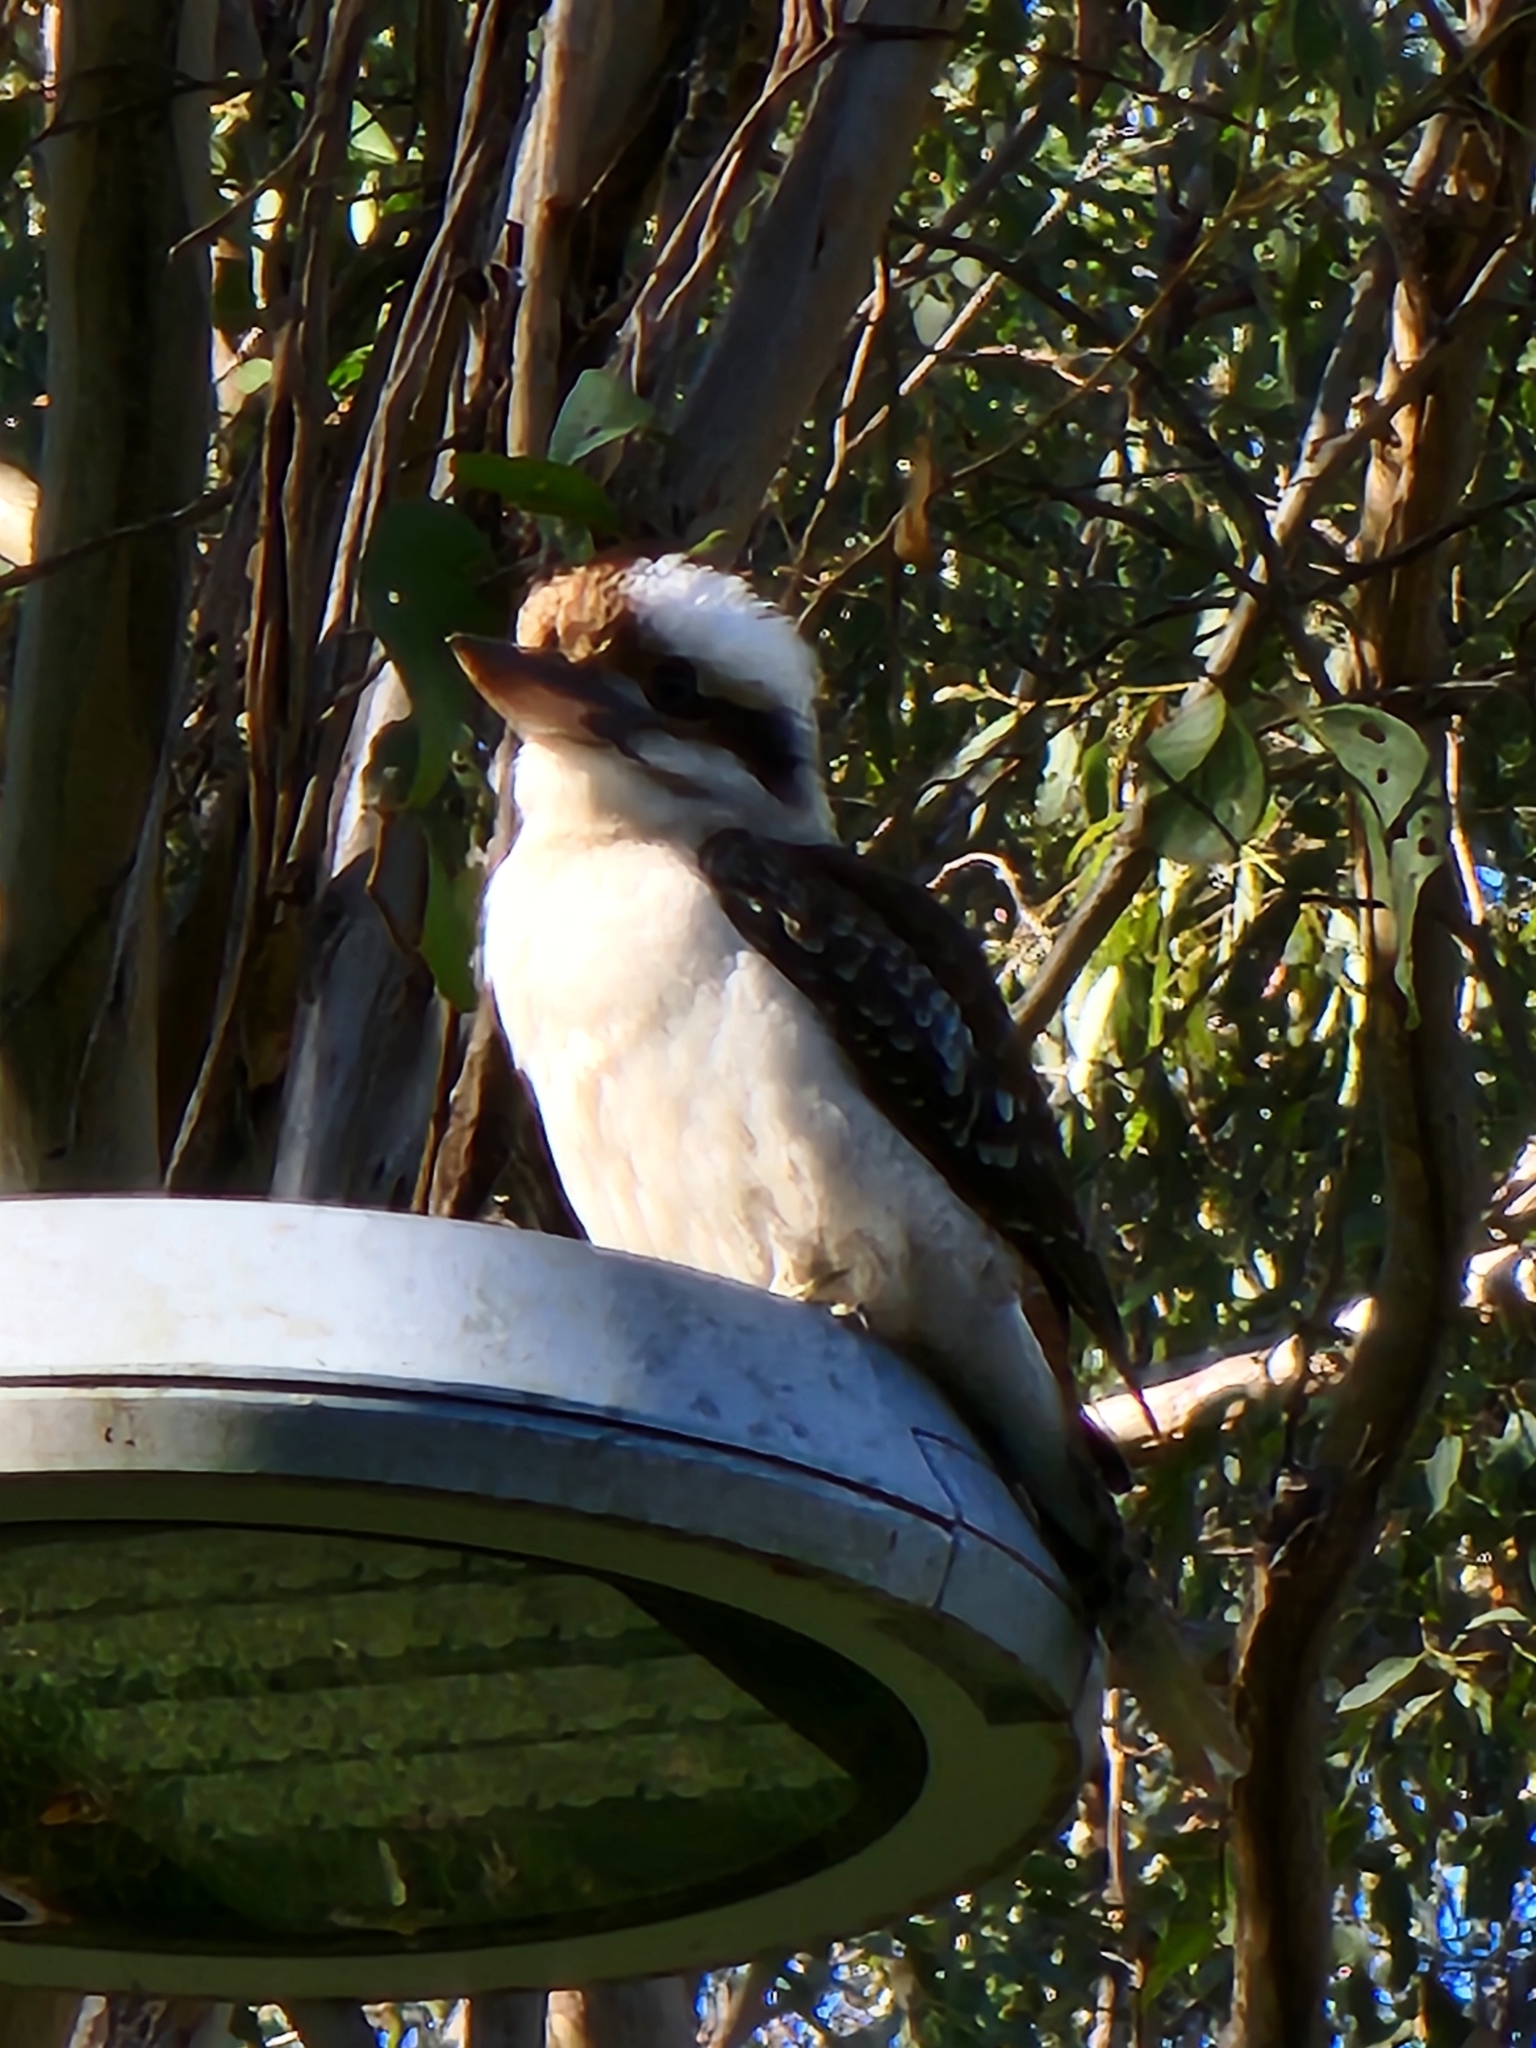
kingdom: Animalia
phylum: Chordata
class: Aves
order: Coraciiformes
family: Alcedinidae
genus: Dacelo
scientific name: Dacelo novaeguineae
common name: Laughing kookaburra
